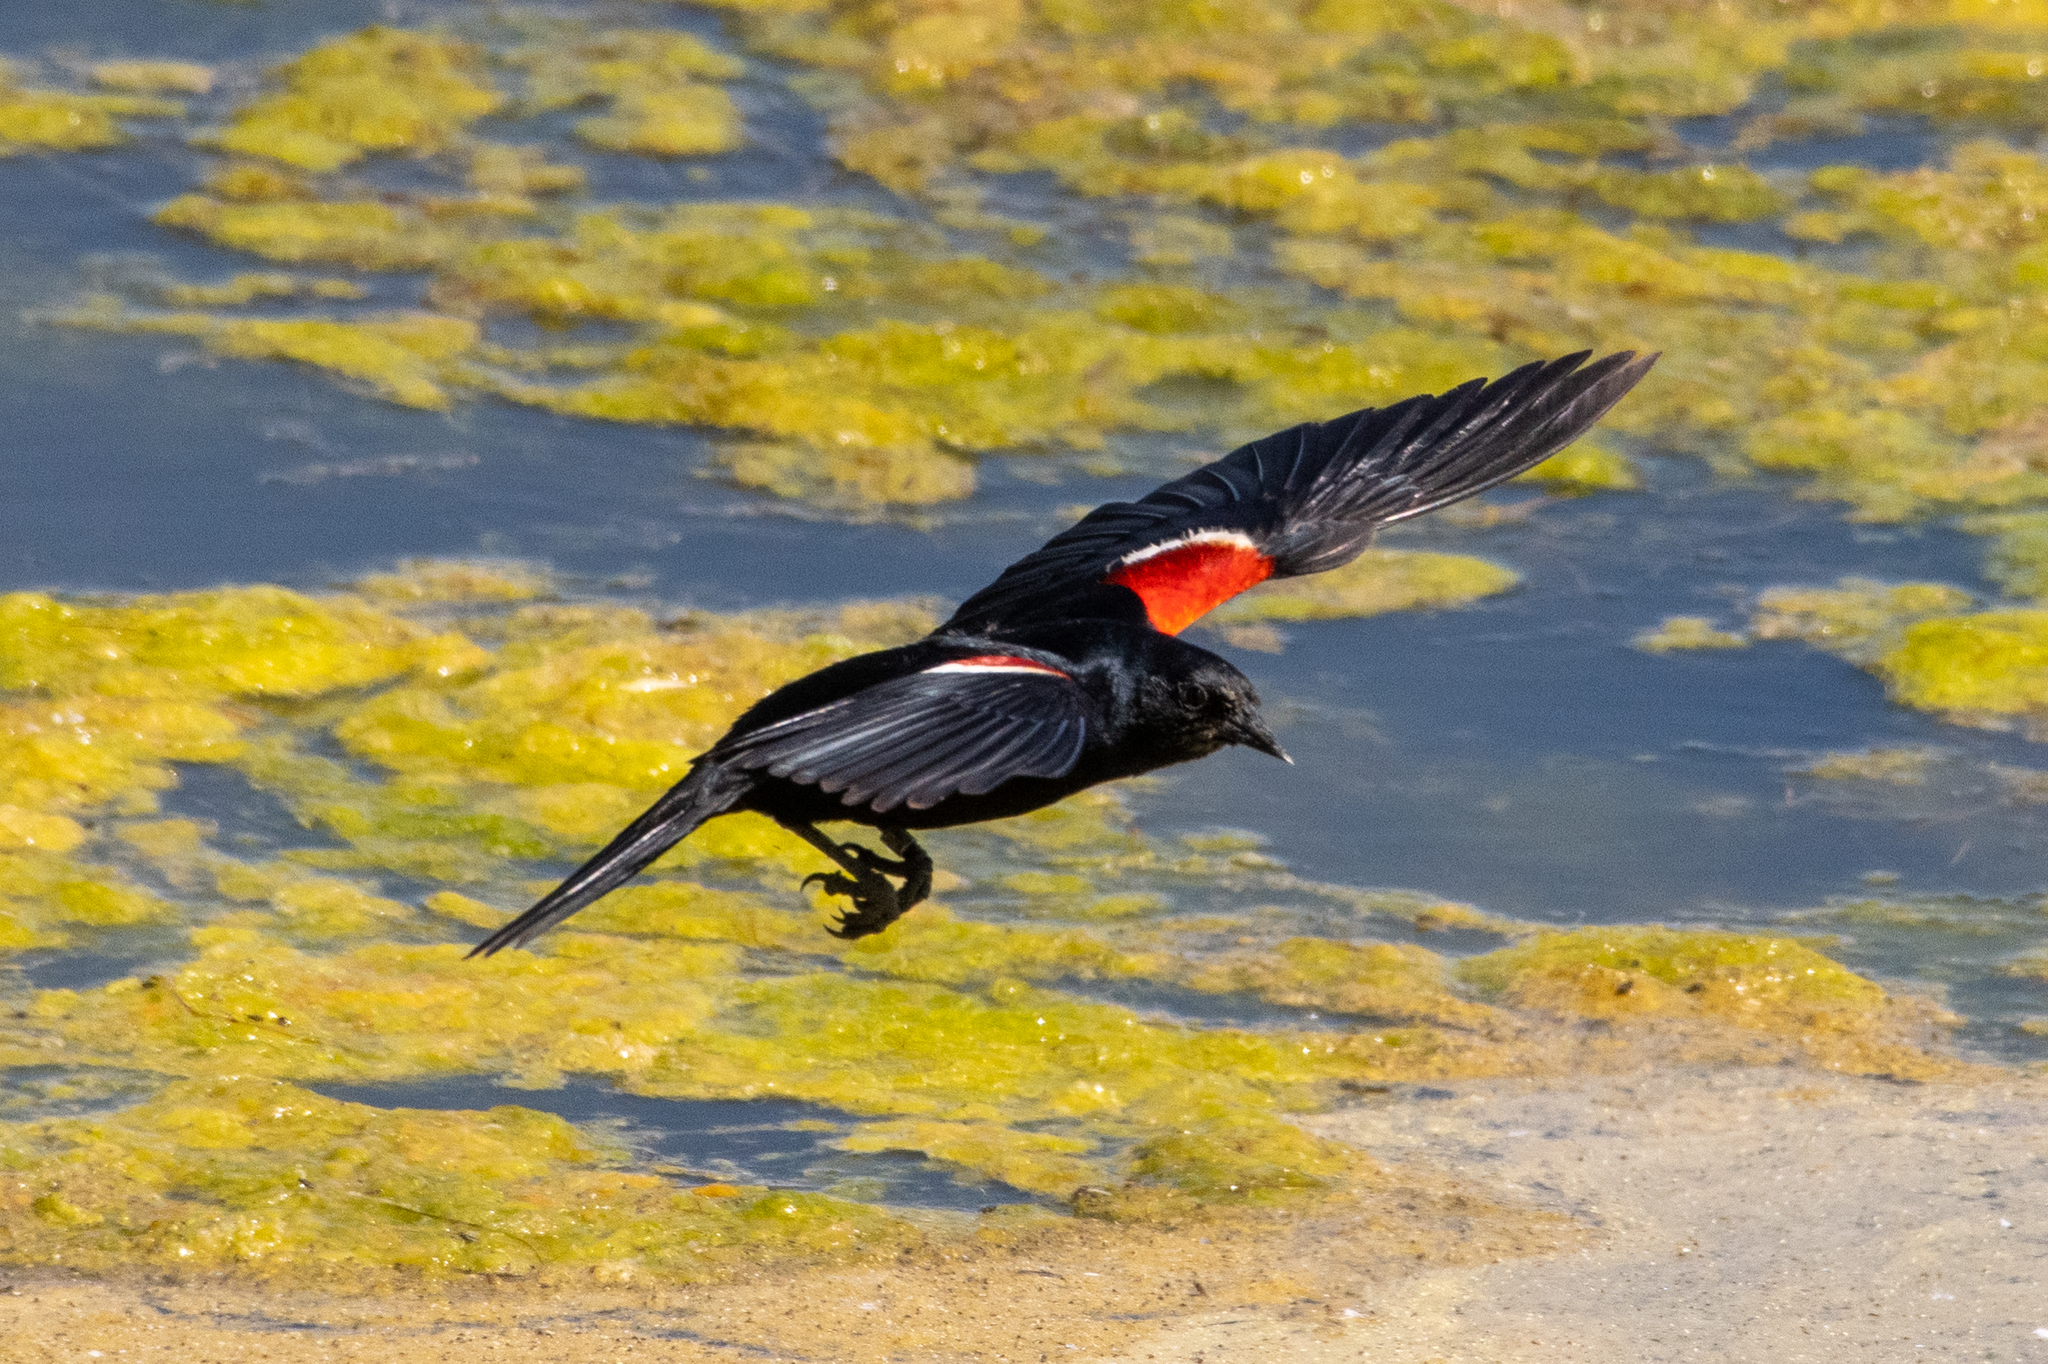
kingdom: Animalia
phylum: Chordata
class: Aves
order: Passeriformes
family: Icteridae
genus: Agelaius
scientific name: Agelaius tricolor
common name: Tricolored blackbird
